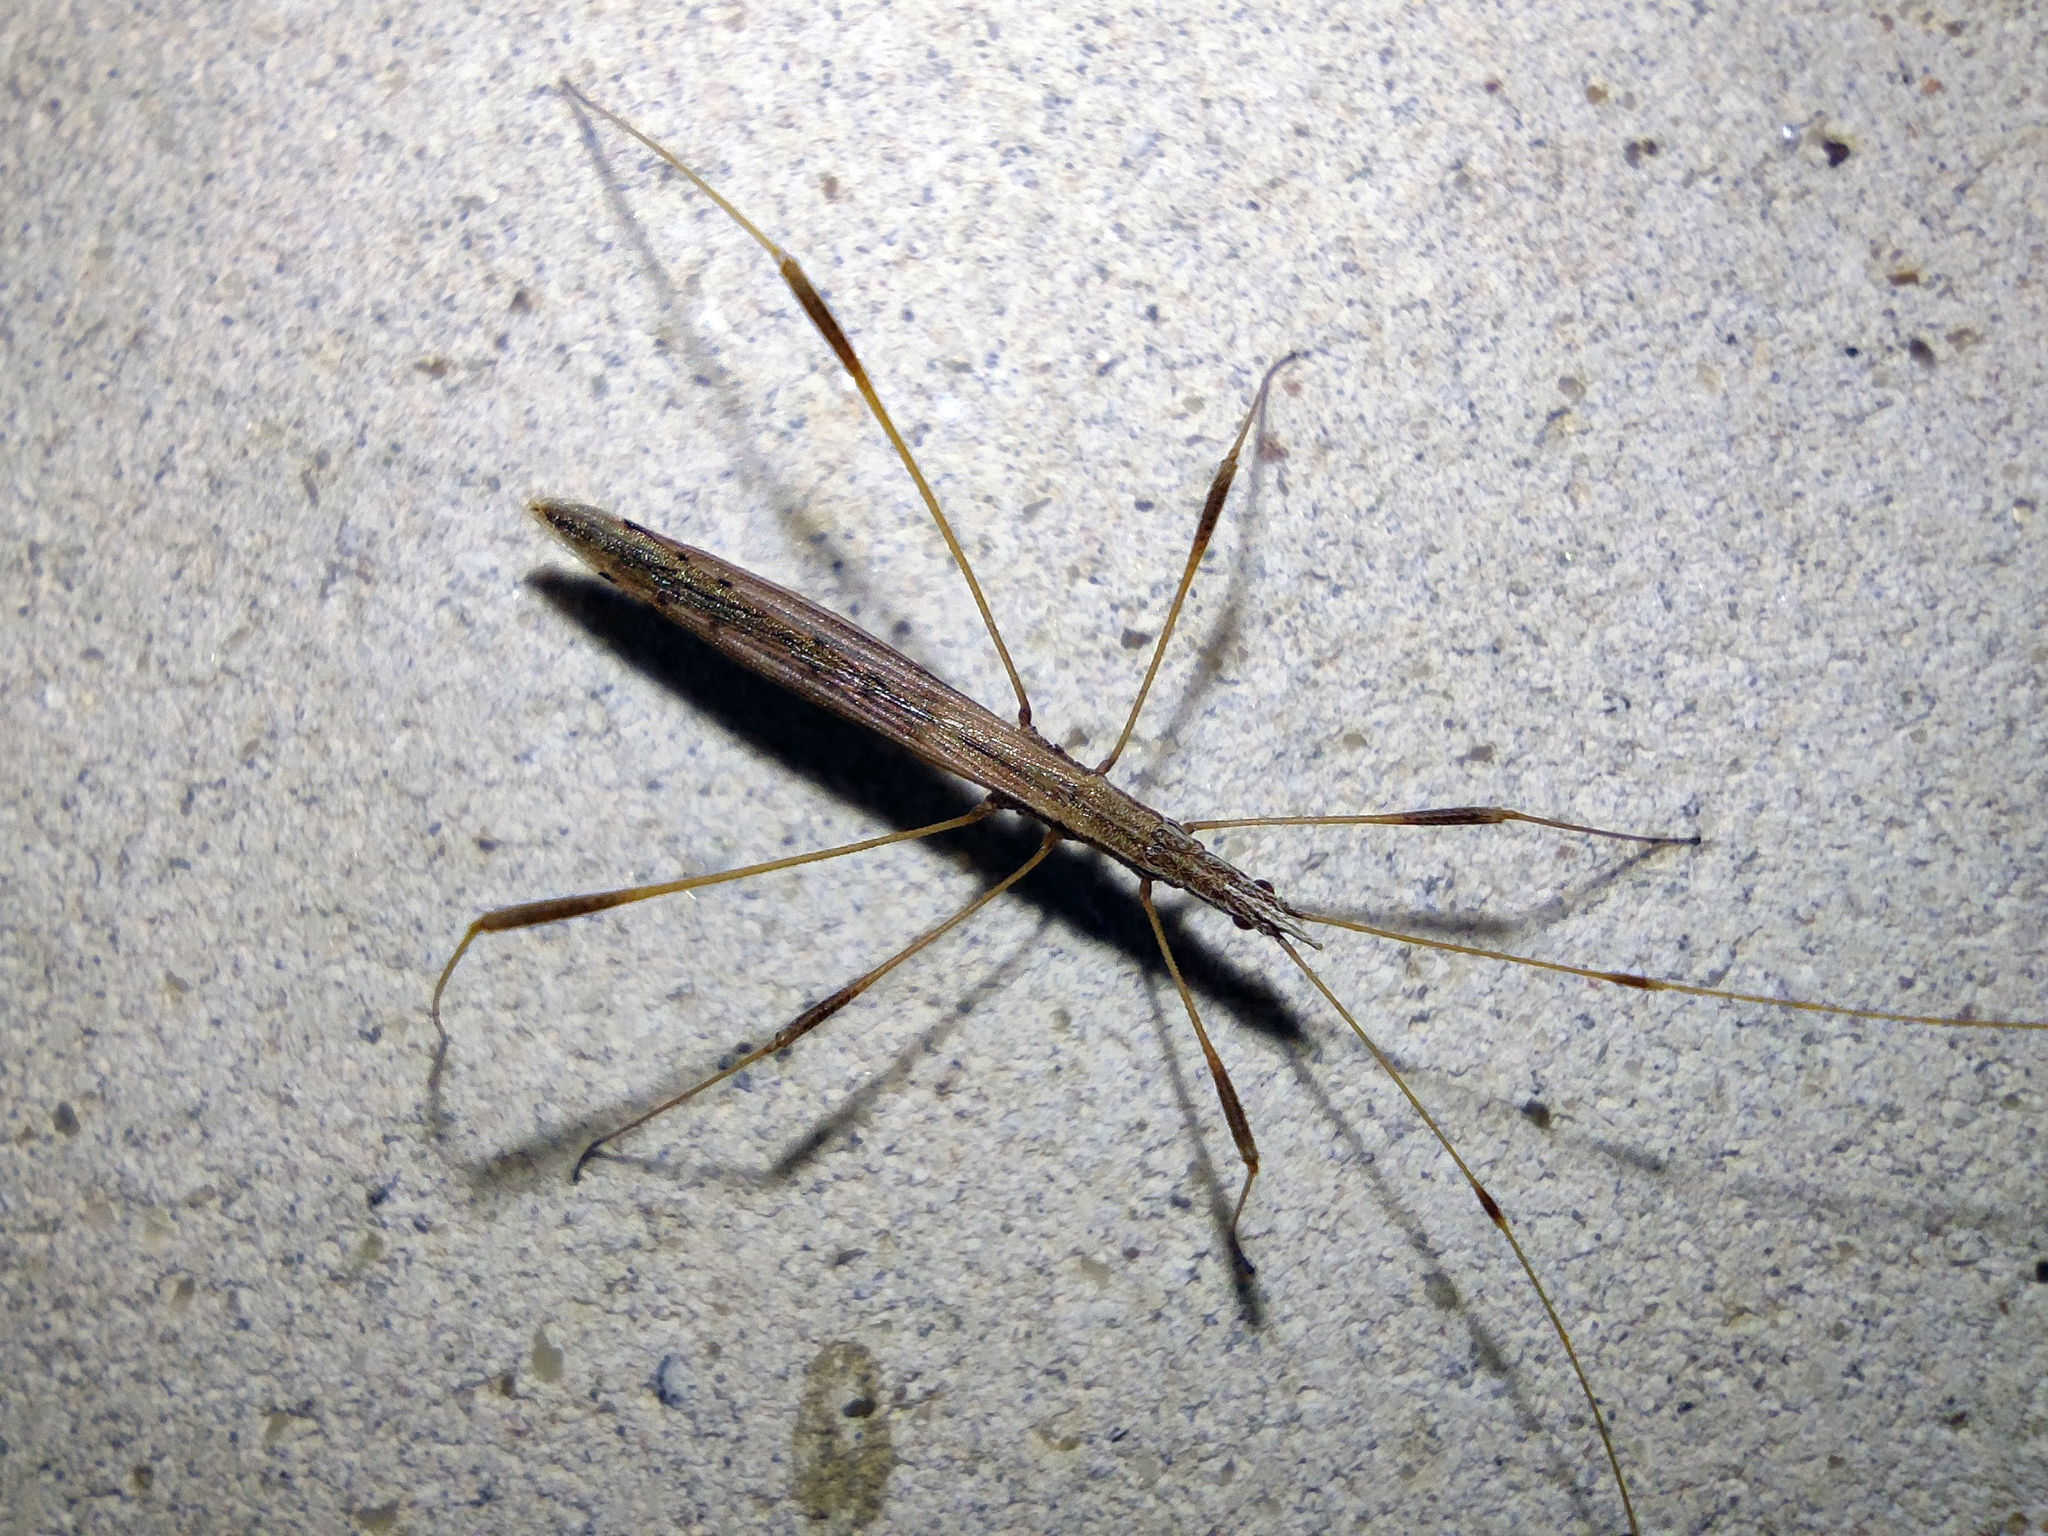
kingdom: Animalia
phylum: Arthropoda
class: Insecta
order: Hemiptera
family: Berytidae
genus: Neides
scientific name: Neides tipularius
